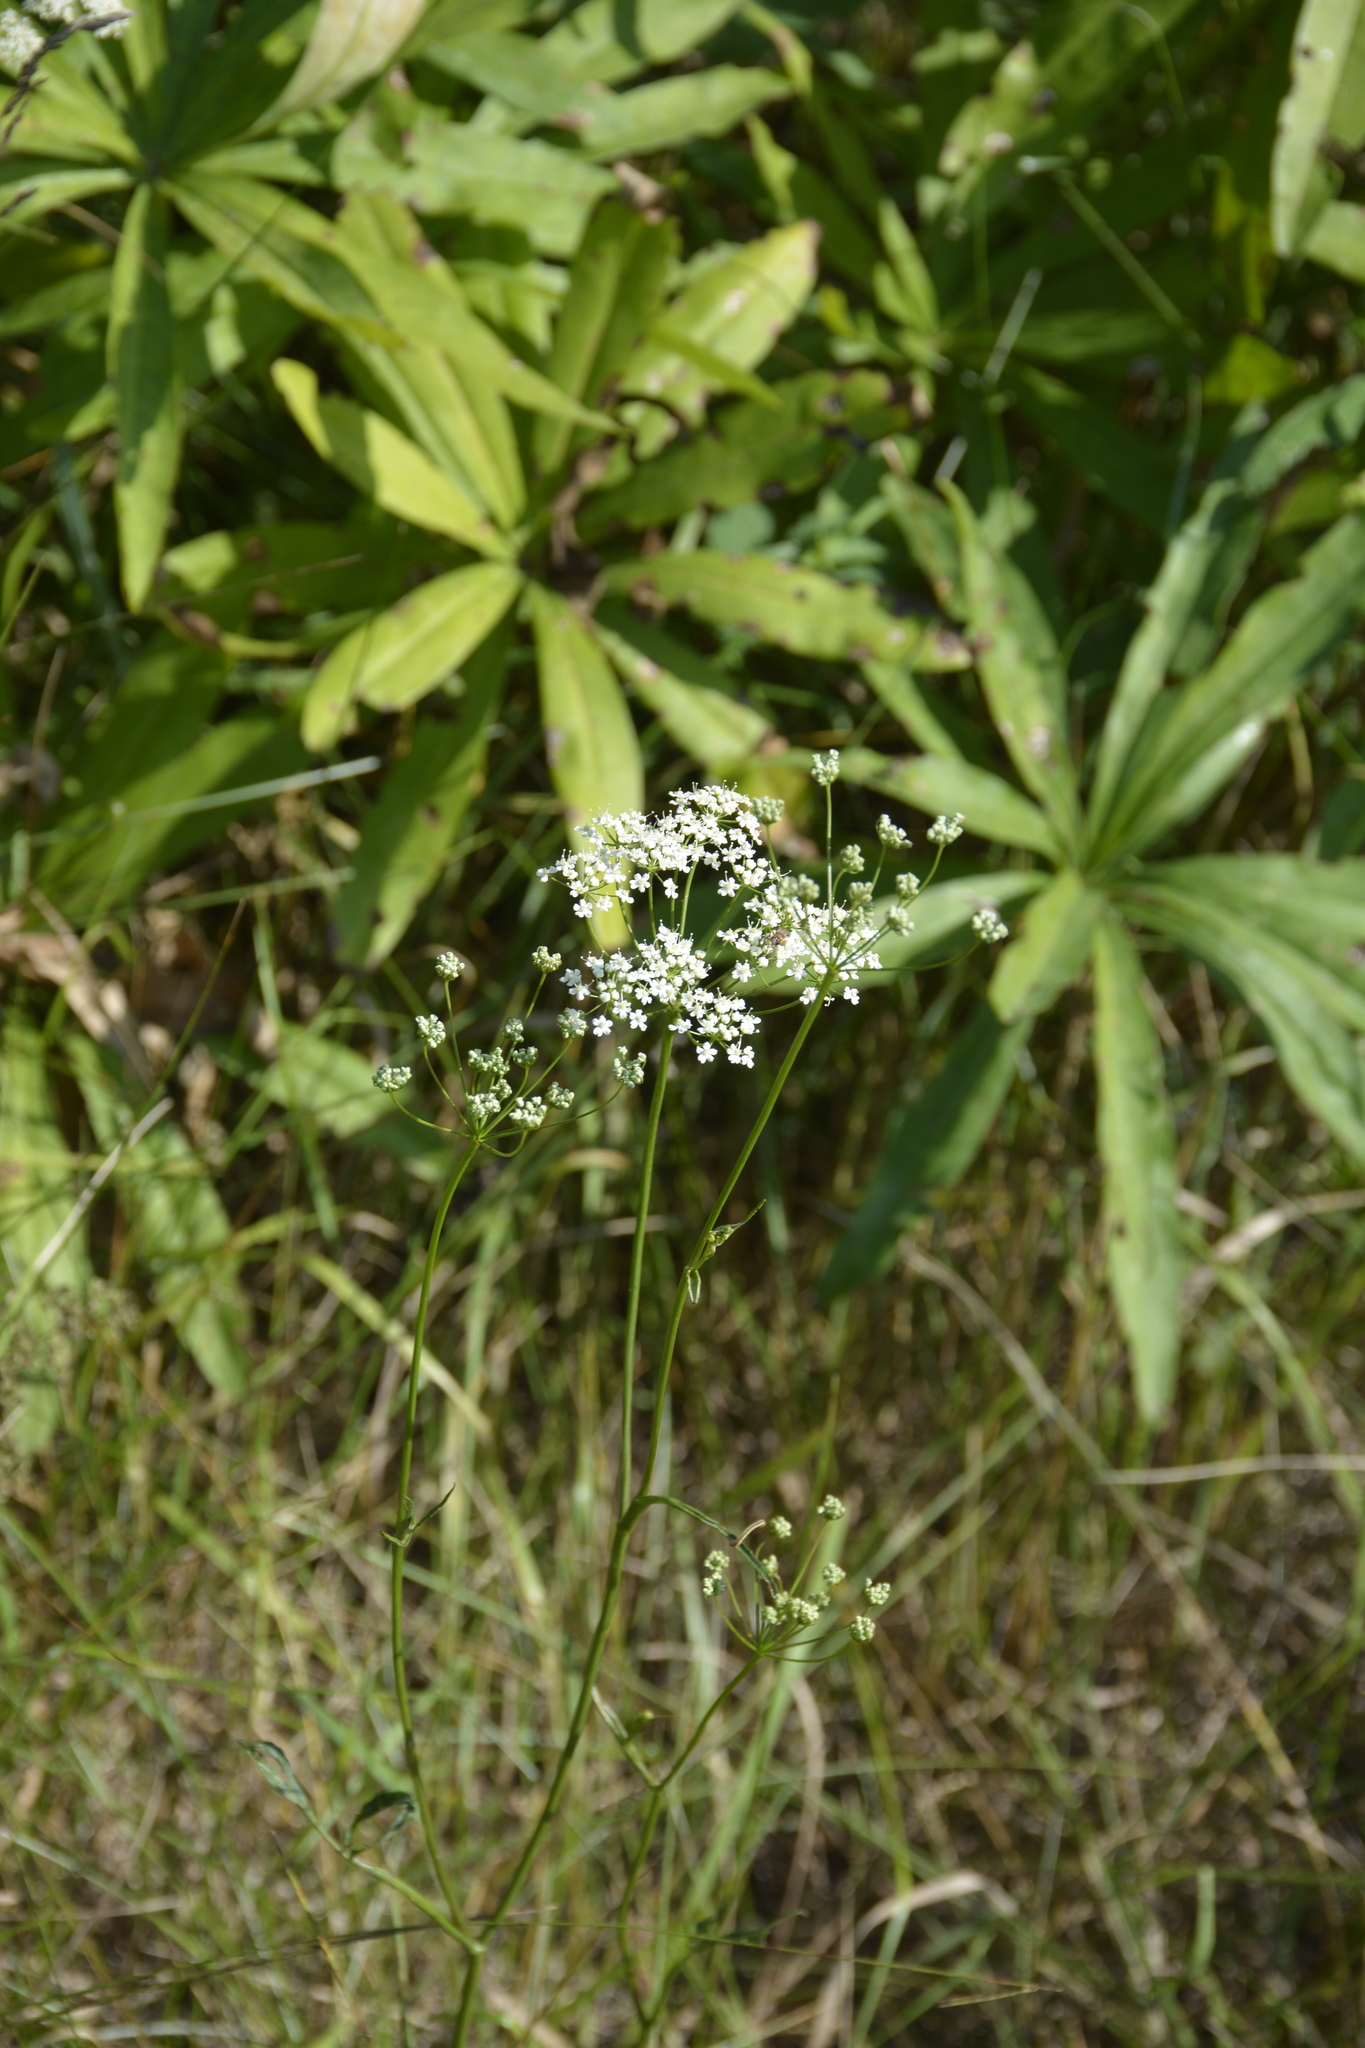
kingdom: Plantae
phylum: Tracheophyta
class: Magnoliopsida
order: Apiales
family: Apiaceae
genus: Pimpinella
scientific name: Pimpinella saxifraga
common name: Burnet-saxifrage
